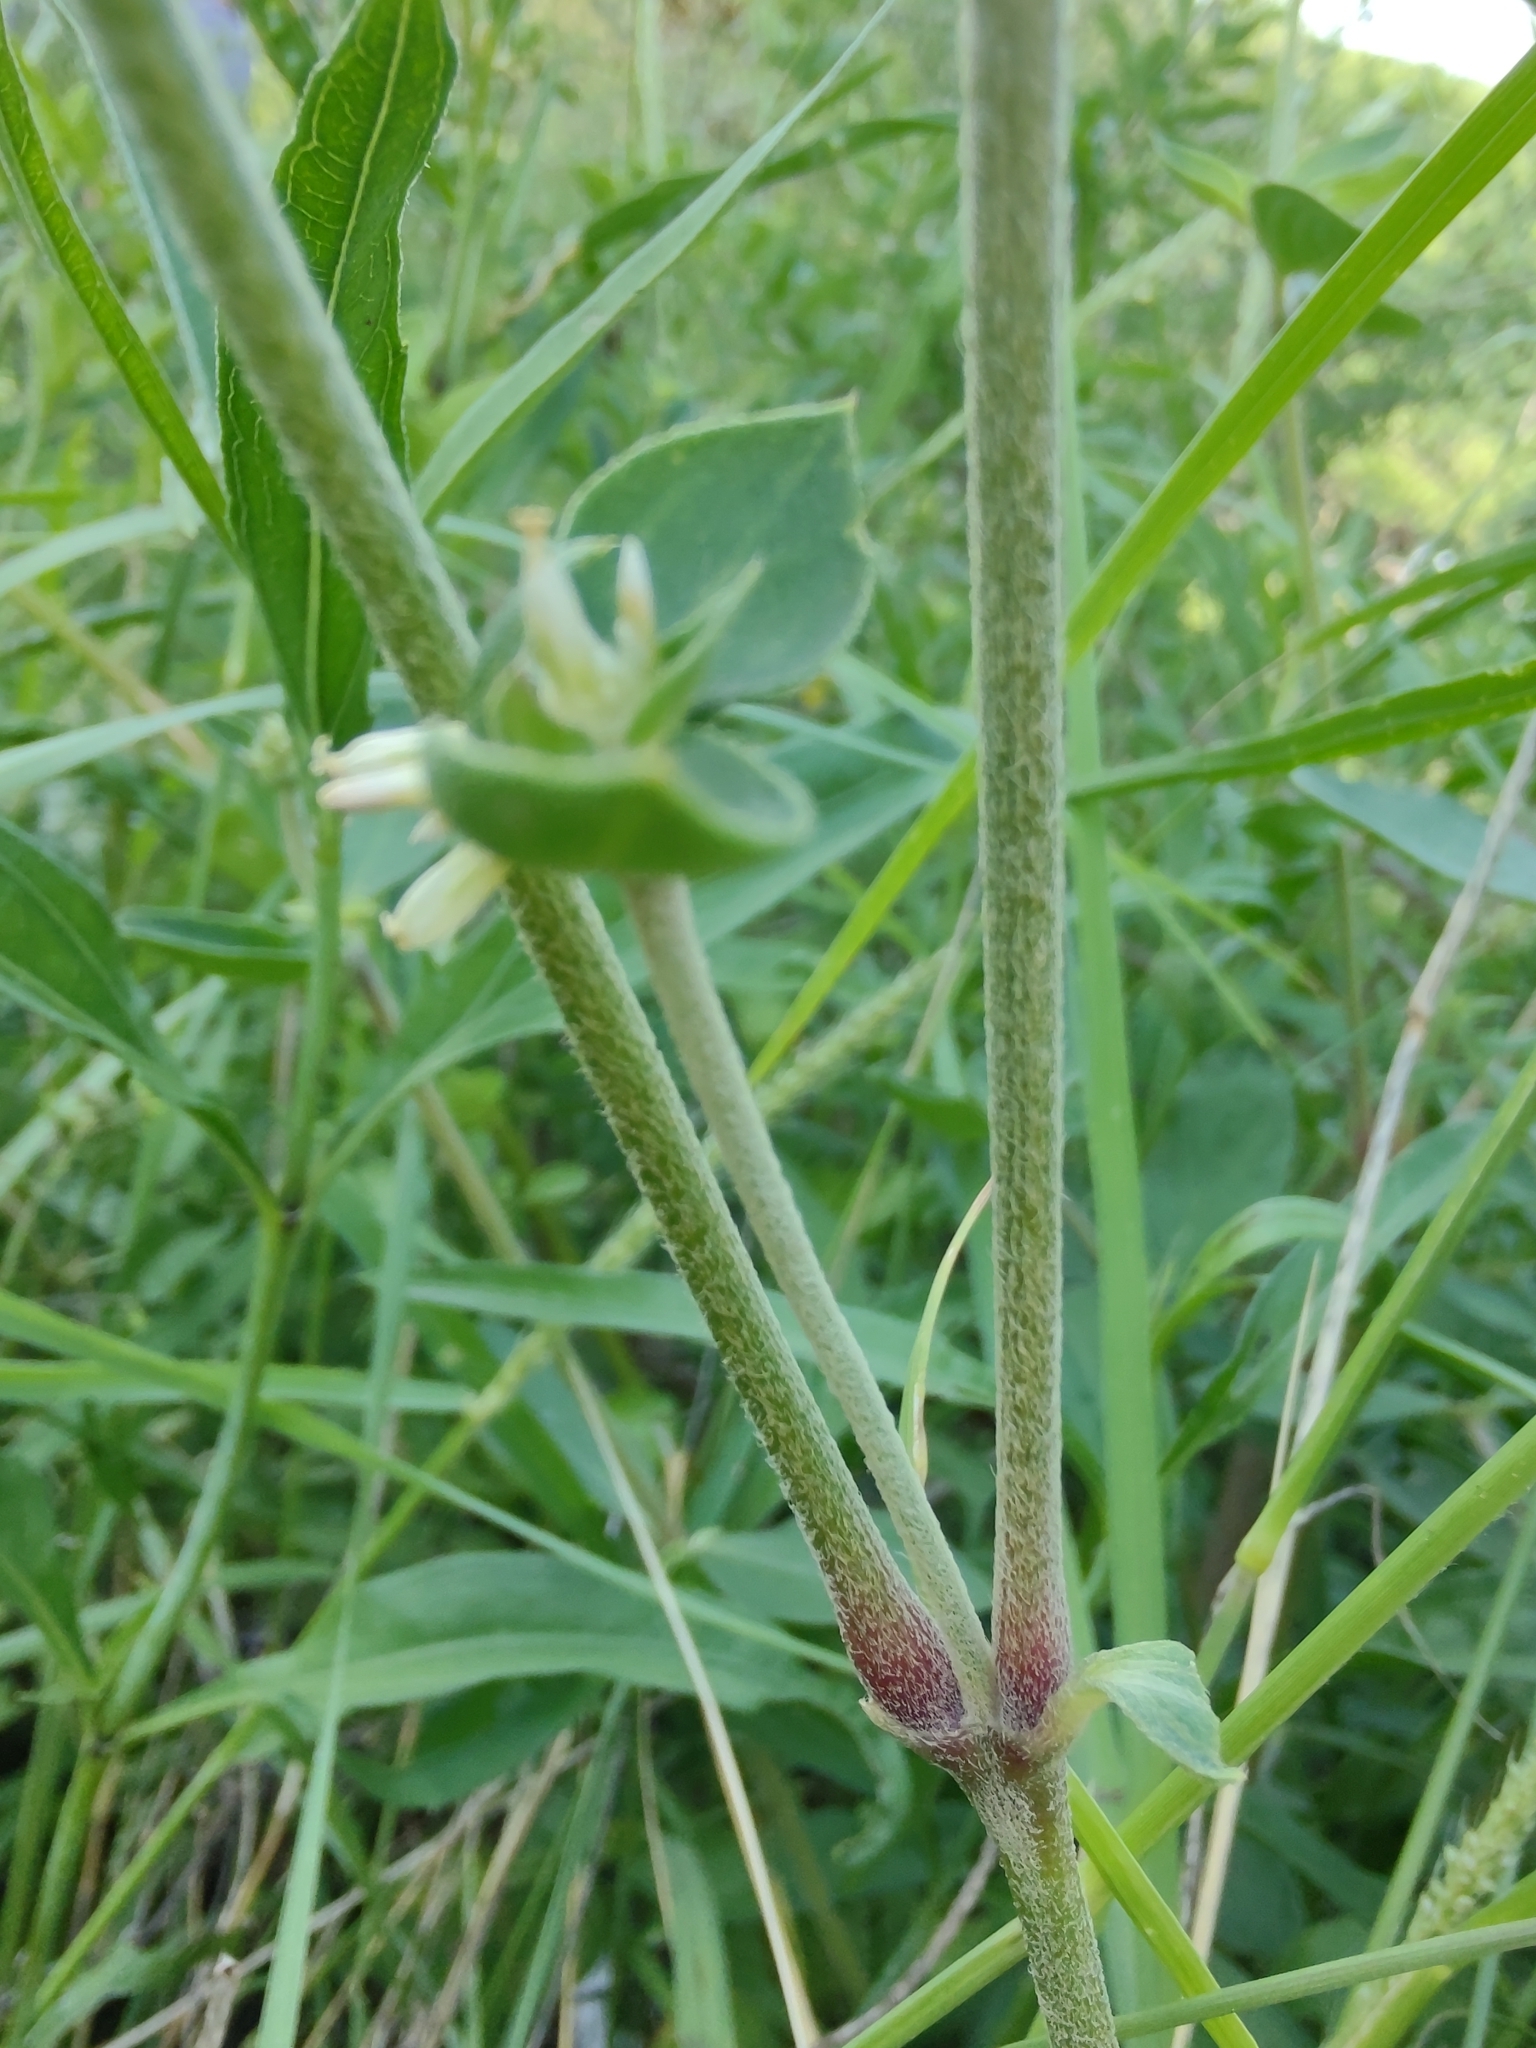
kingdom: Plantae
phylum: Tracheophyta
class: Magnoliopsida
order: Caryophyllales
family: Amaranthaceae
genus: Gomphrena
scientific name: Gomphrena perennis
